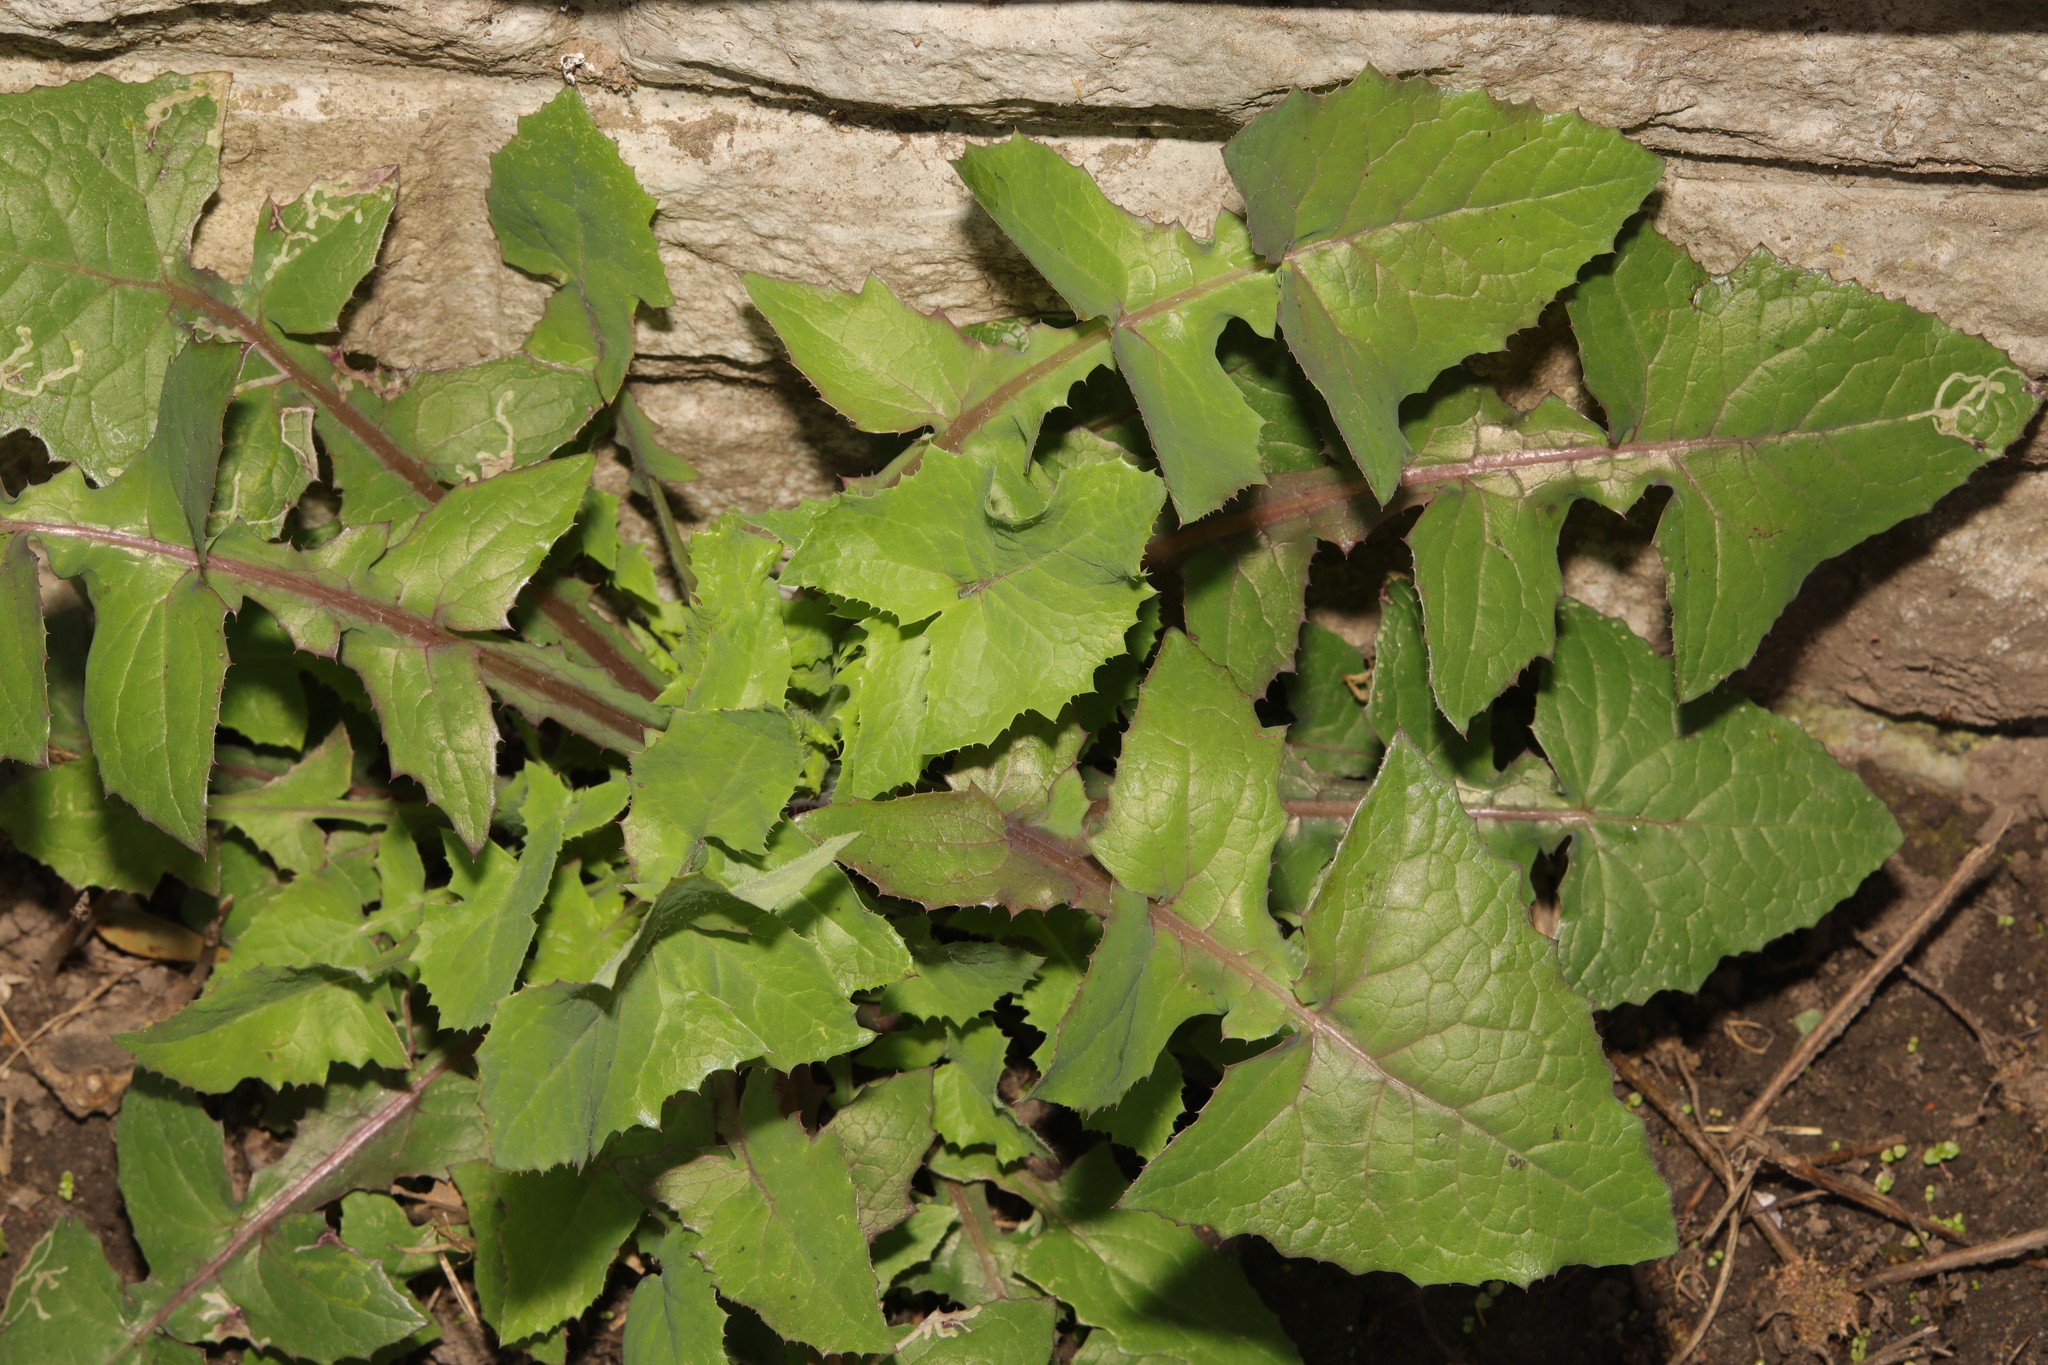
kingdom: Plantae
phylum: Tracheophyta
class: Magnoliopsida
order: Asterales
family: Asteraceae
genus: Sonchus
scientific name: Sonchus oleraceus
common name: Common sowthistle
